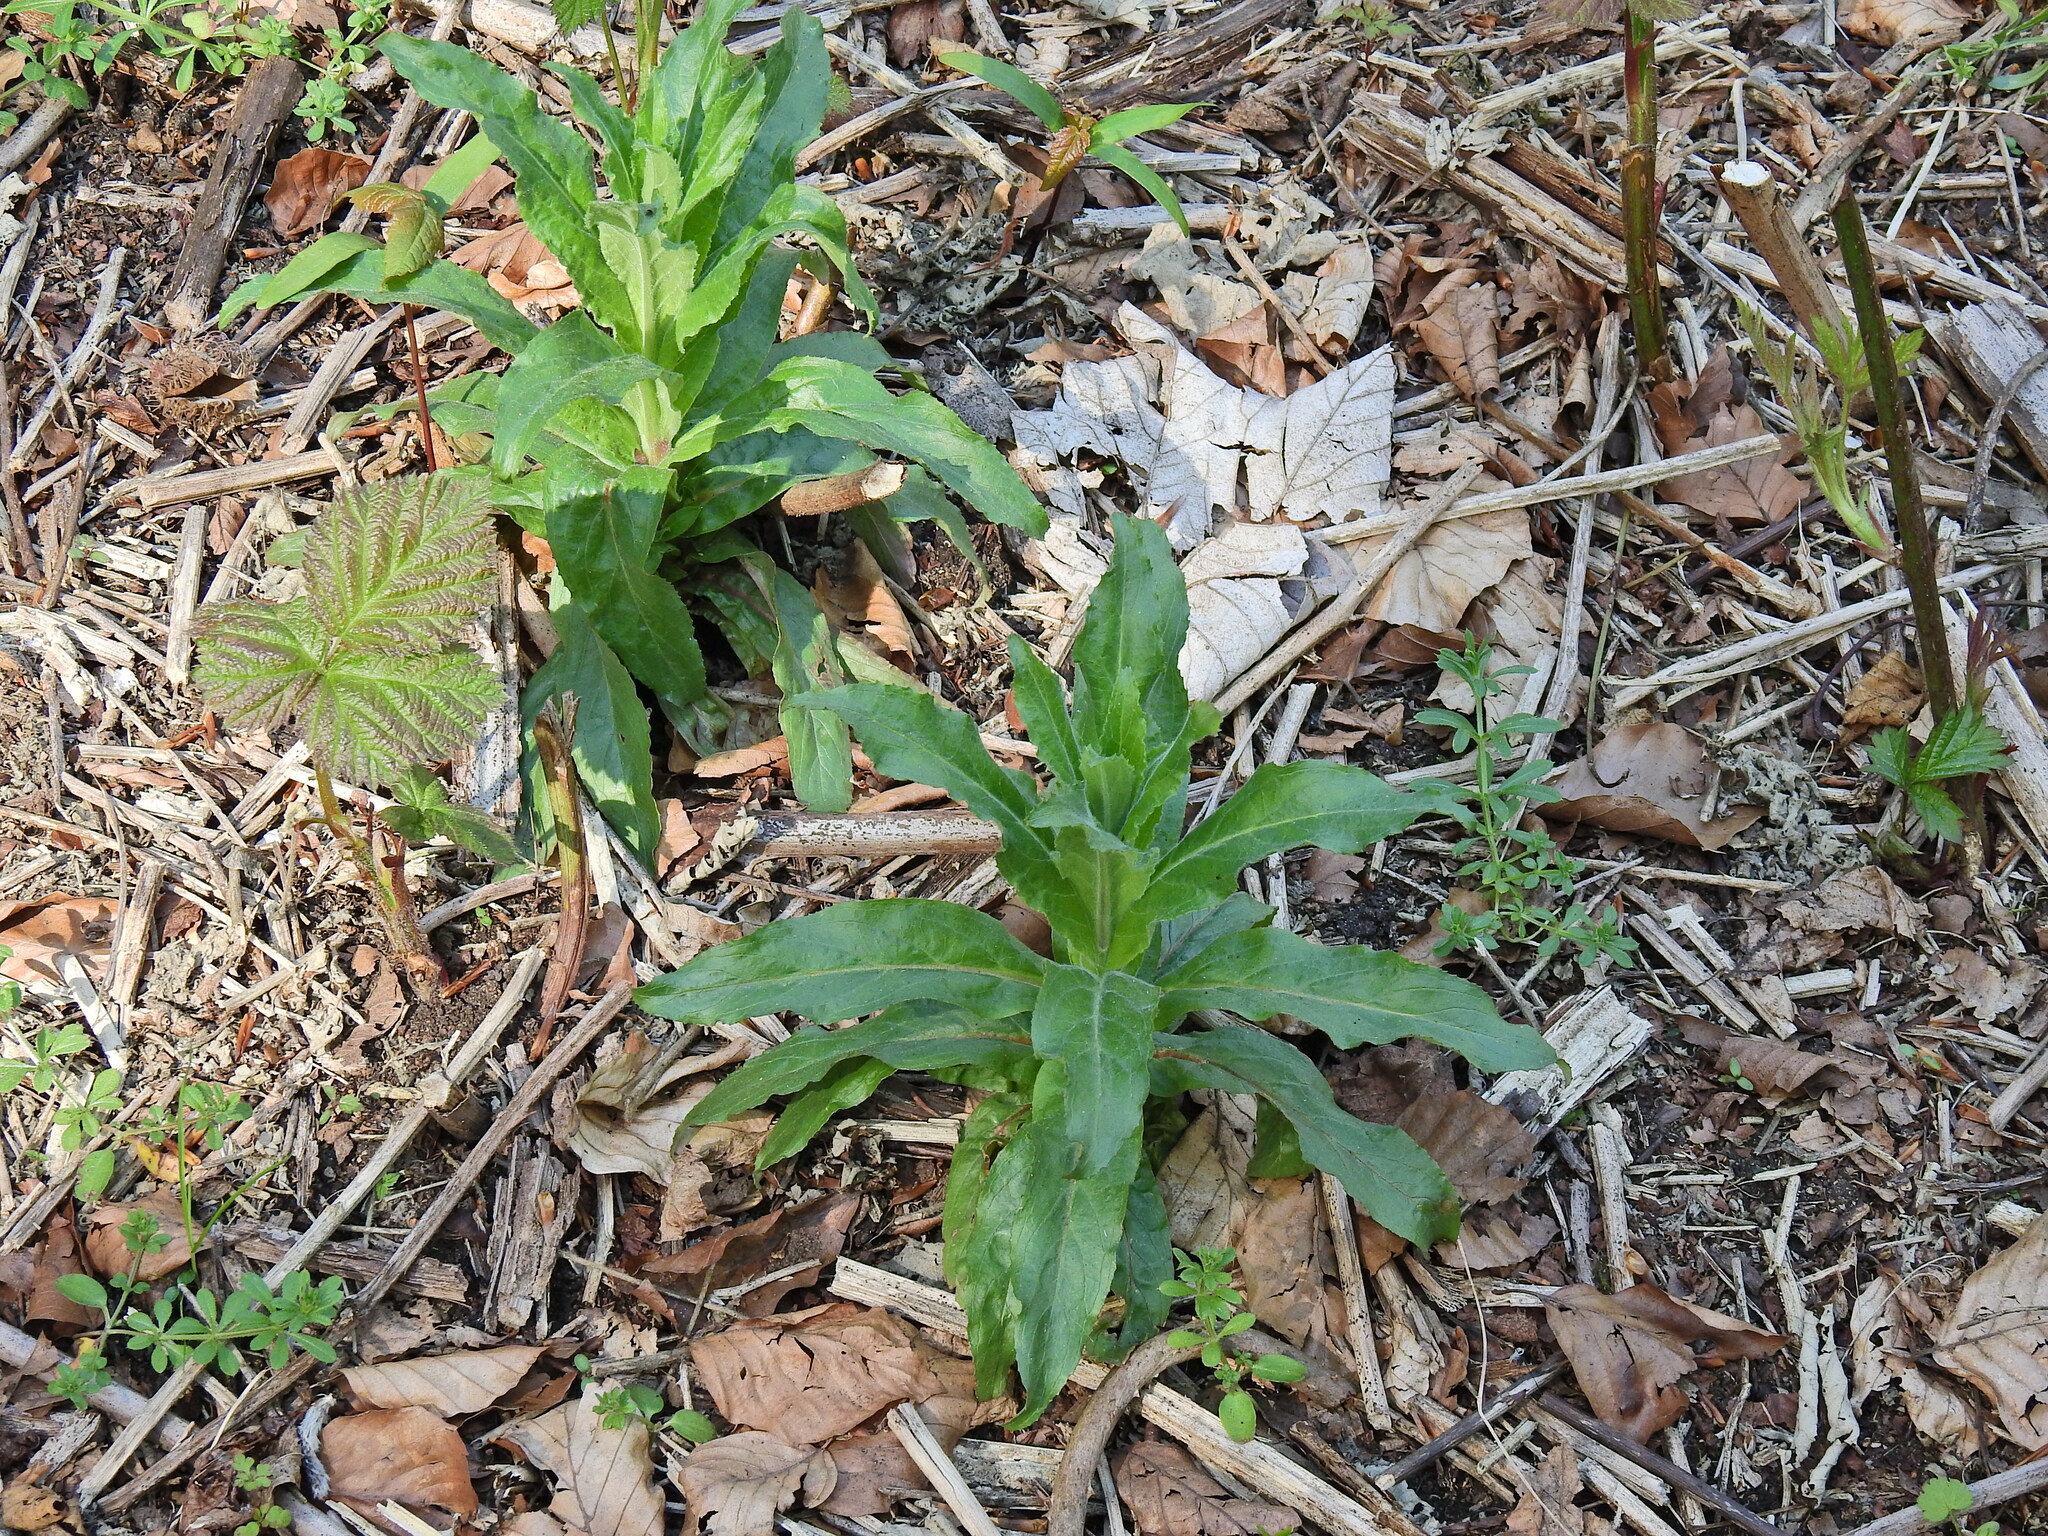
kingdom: Plantae
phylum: Tracheophyta
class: Magnoliopsida
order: Myrtales
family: Onagraceae
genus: Epilobium
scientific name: Epilobium hirsutum
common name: Great willowherb
